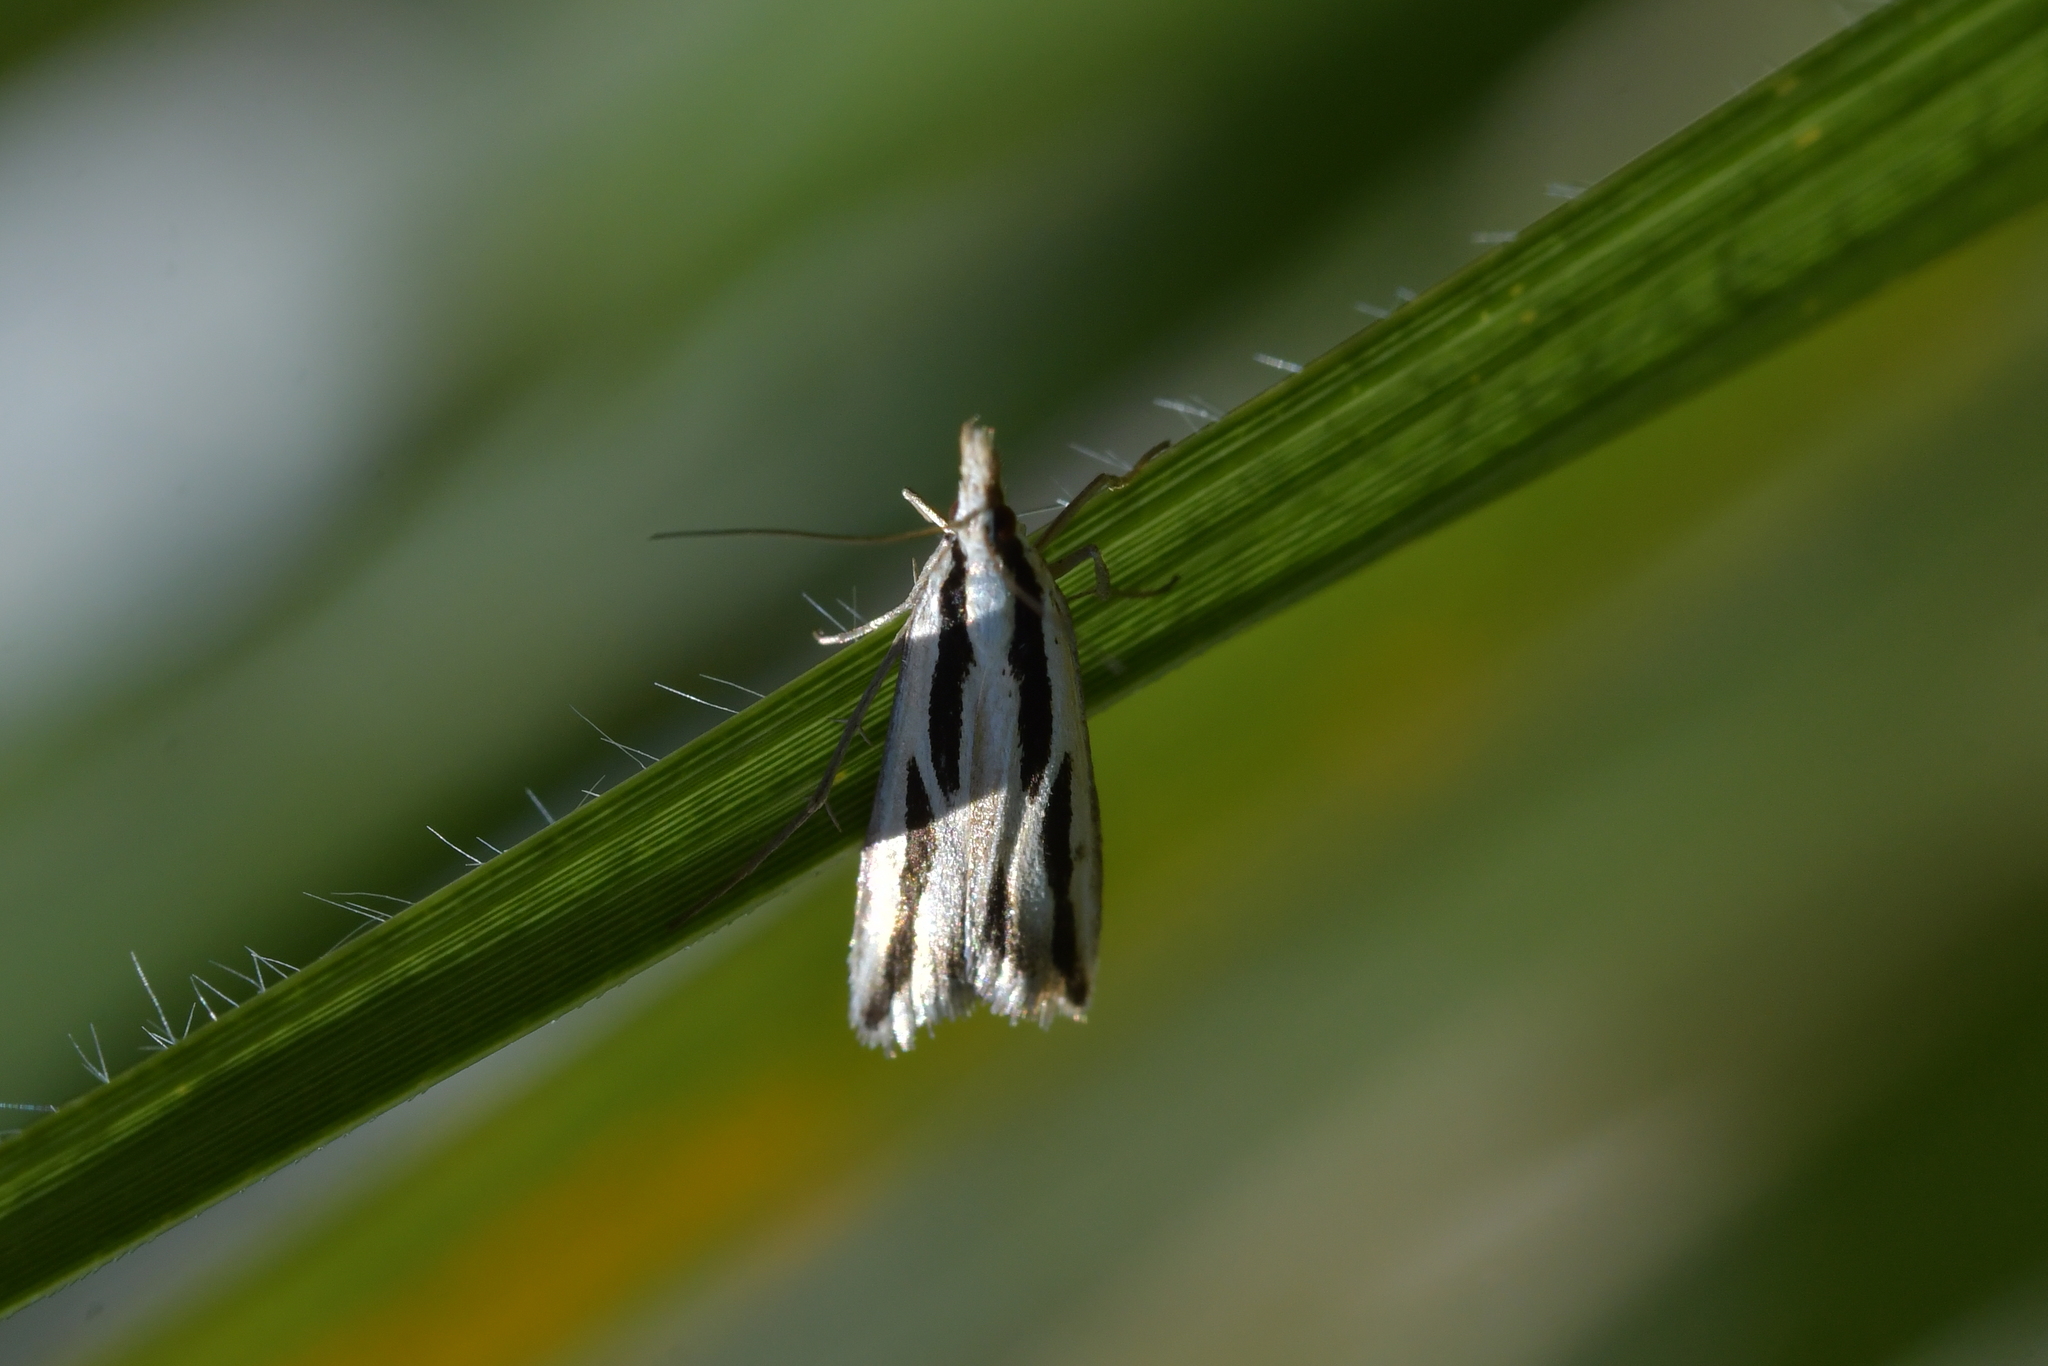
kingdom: Animalia
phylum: Arthropoda
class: Insecta
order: Lepidoptera
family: Crambidae
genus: Eudonia
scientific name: Eudonia trivirgata
